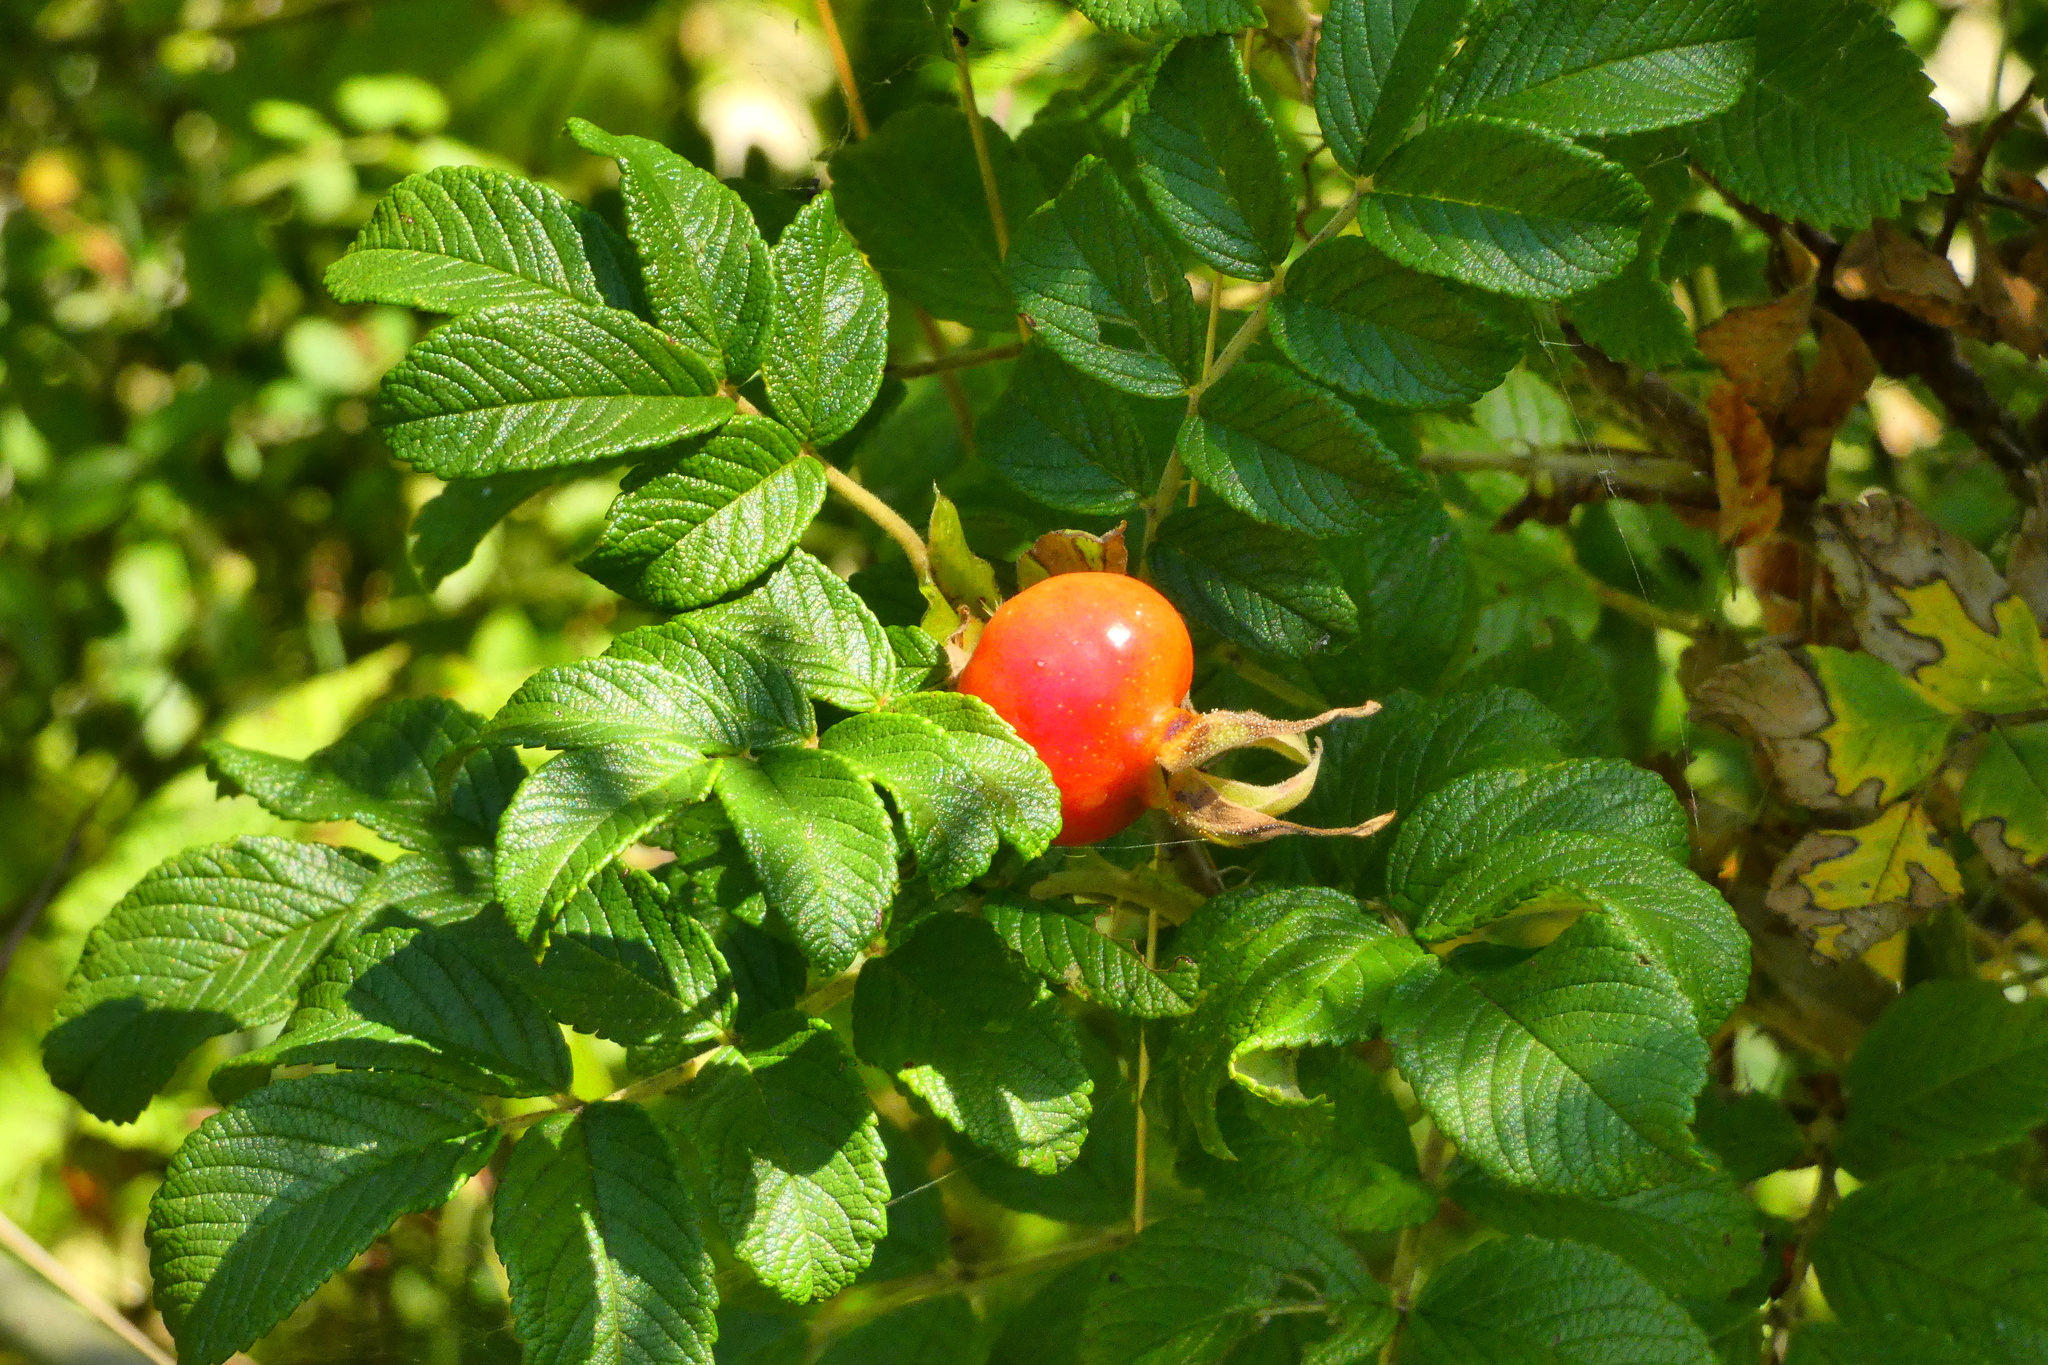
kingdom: Plantae
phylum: Tracheophyta
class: Magnoliopsida
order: Rosales
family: Rosaceae
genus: Rosa
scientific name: Rosa rugosa
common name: Japanese rose
